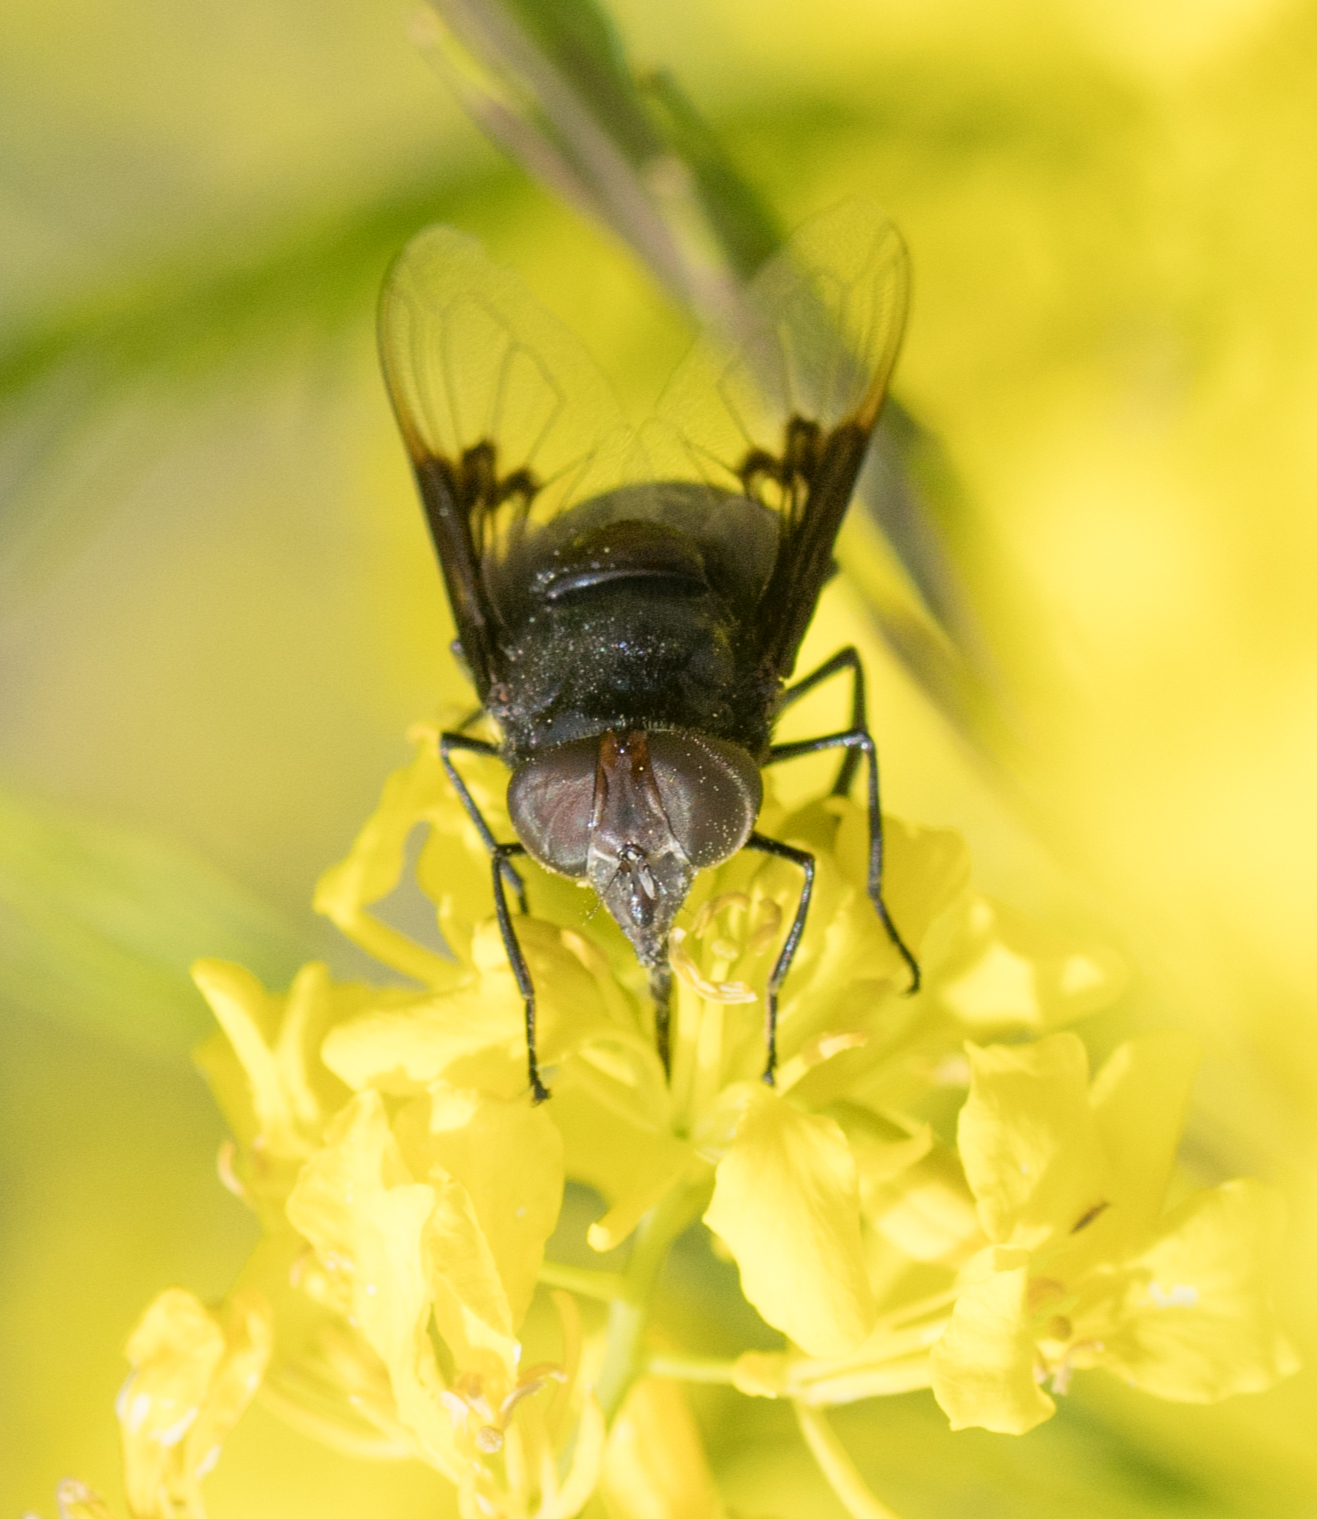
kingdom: Animalia
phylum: Arthropoda
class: Insecta
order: Diptera
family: Syrphidae
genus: Copestylum
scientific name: Copestylum mexicanum
